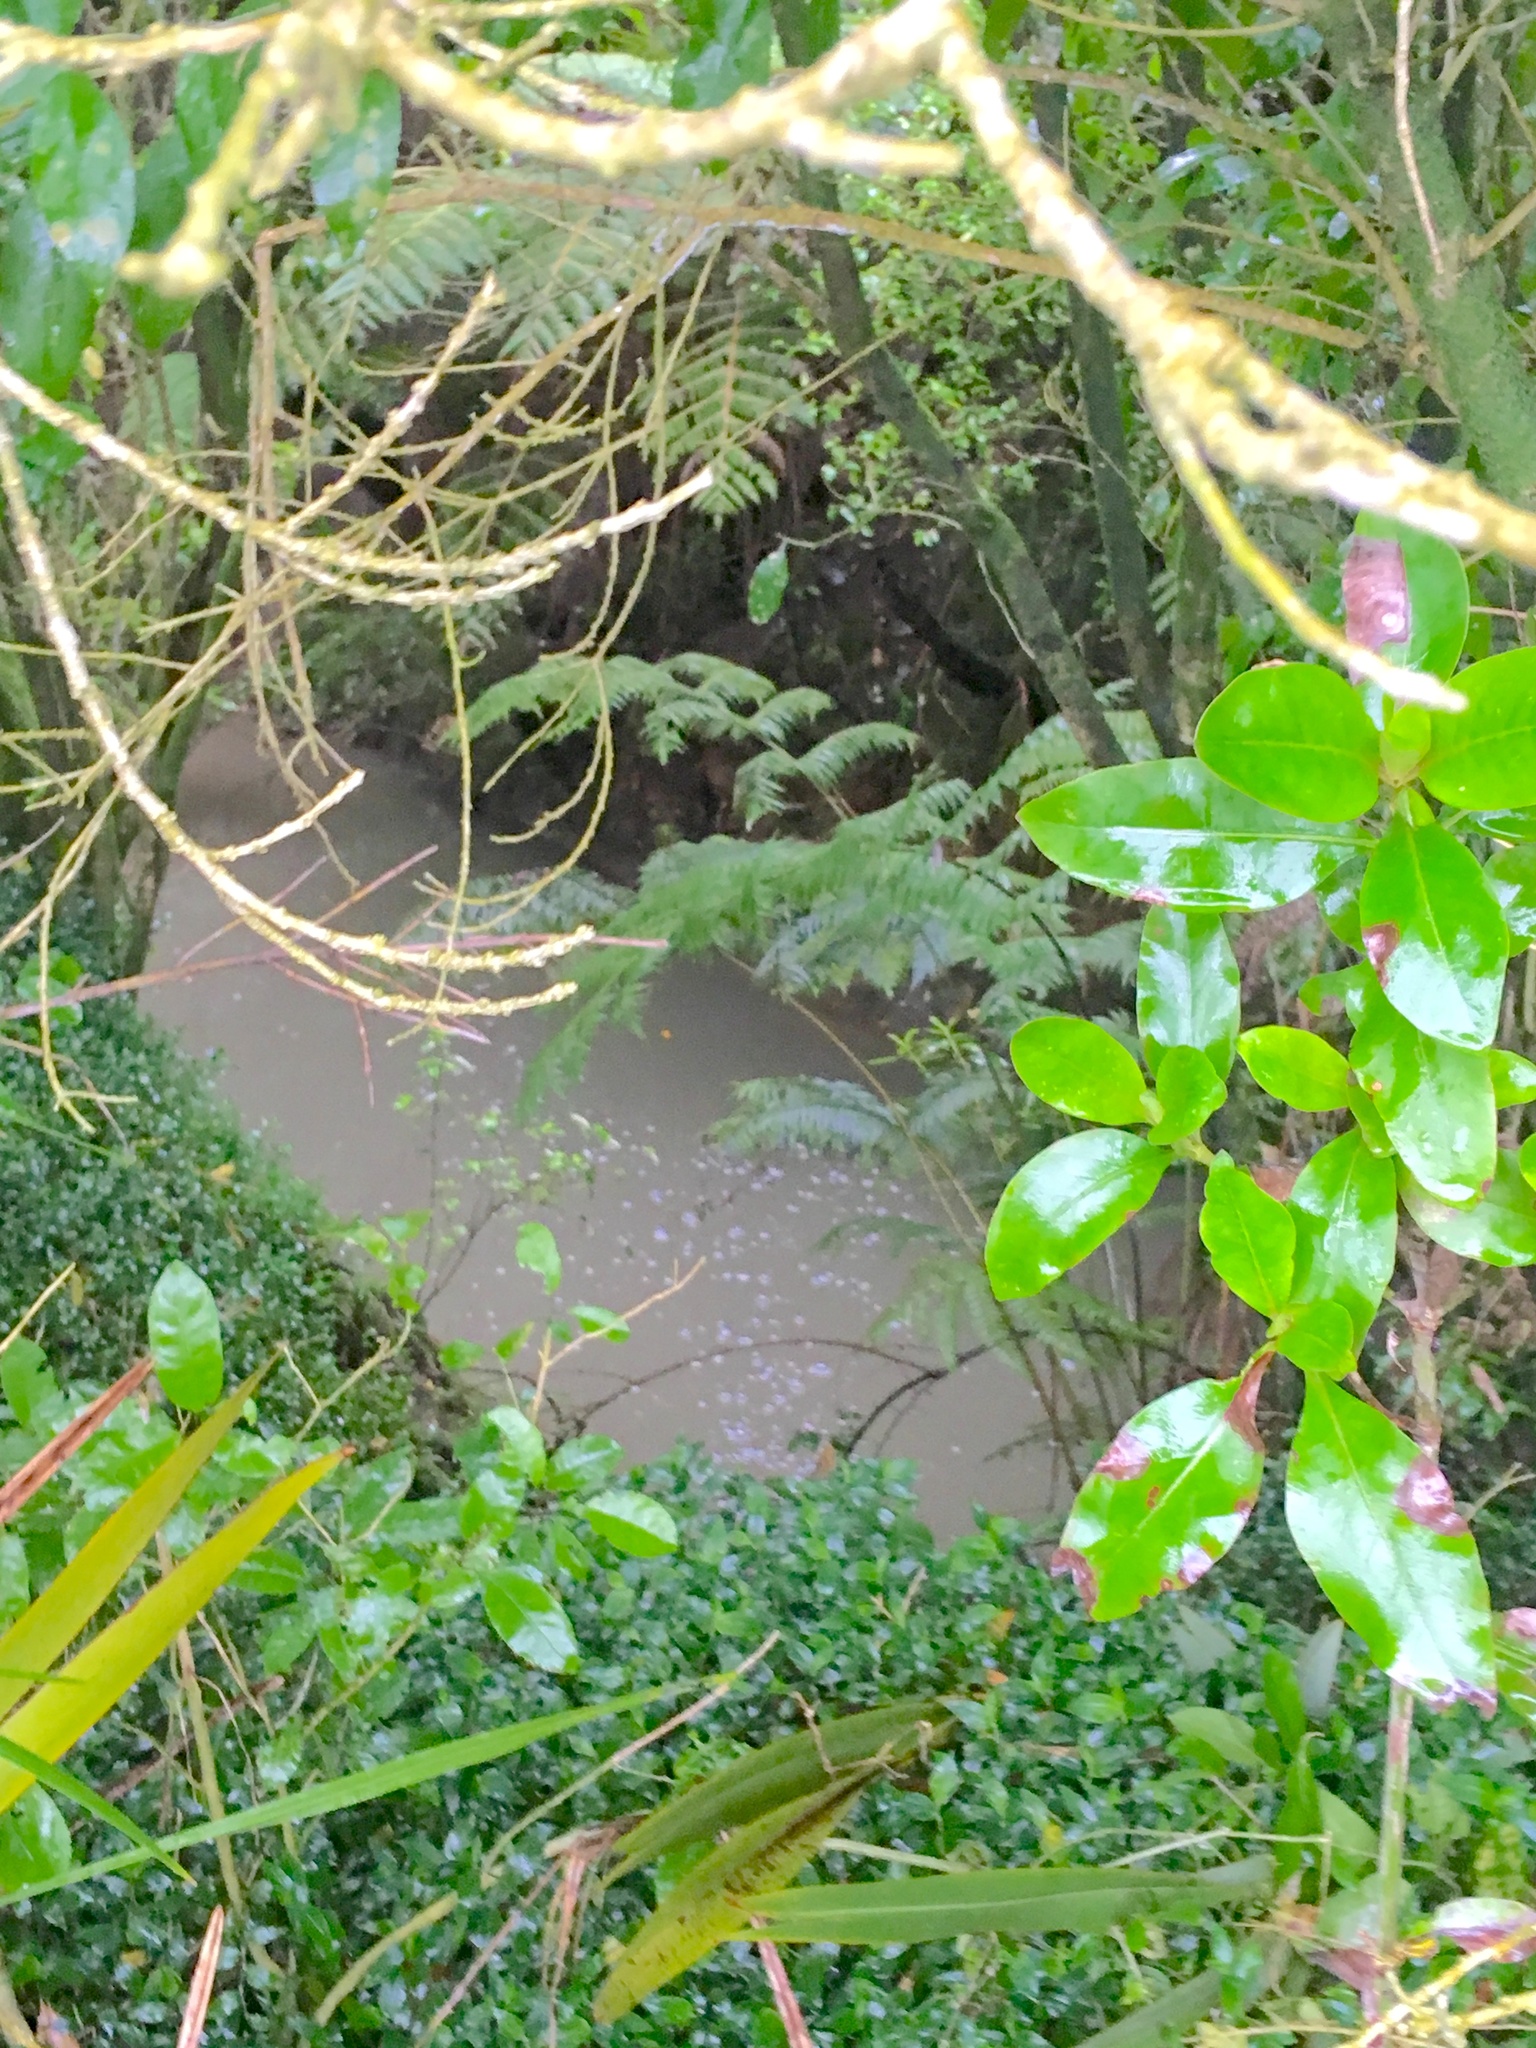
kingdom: Plantae
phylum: Tracheophyta
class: Liliopsida
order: Commelinales
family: Commelinaceae
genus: Tradescantia
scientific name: Tradescantia fluminensis
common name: Wandering-jew
